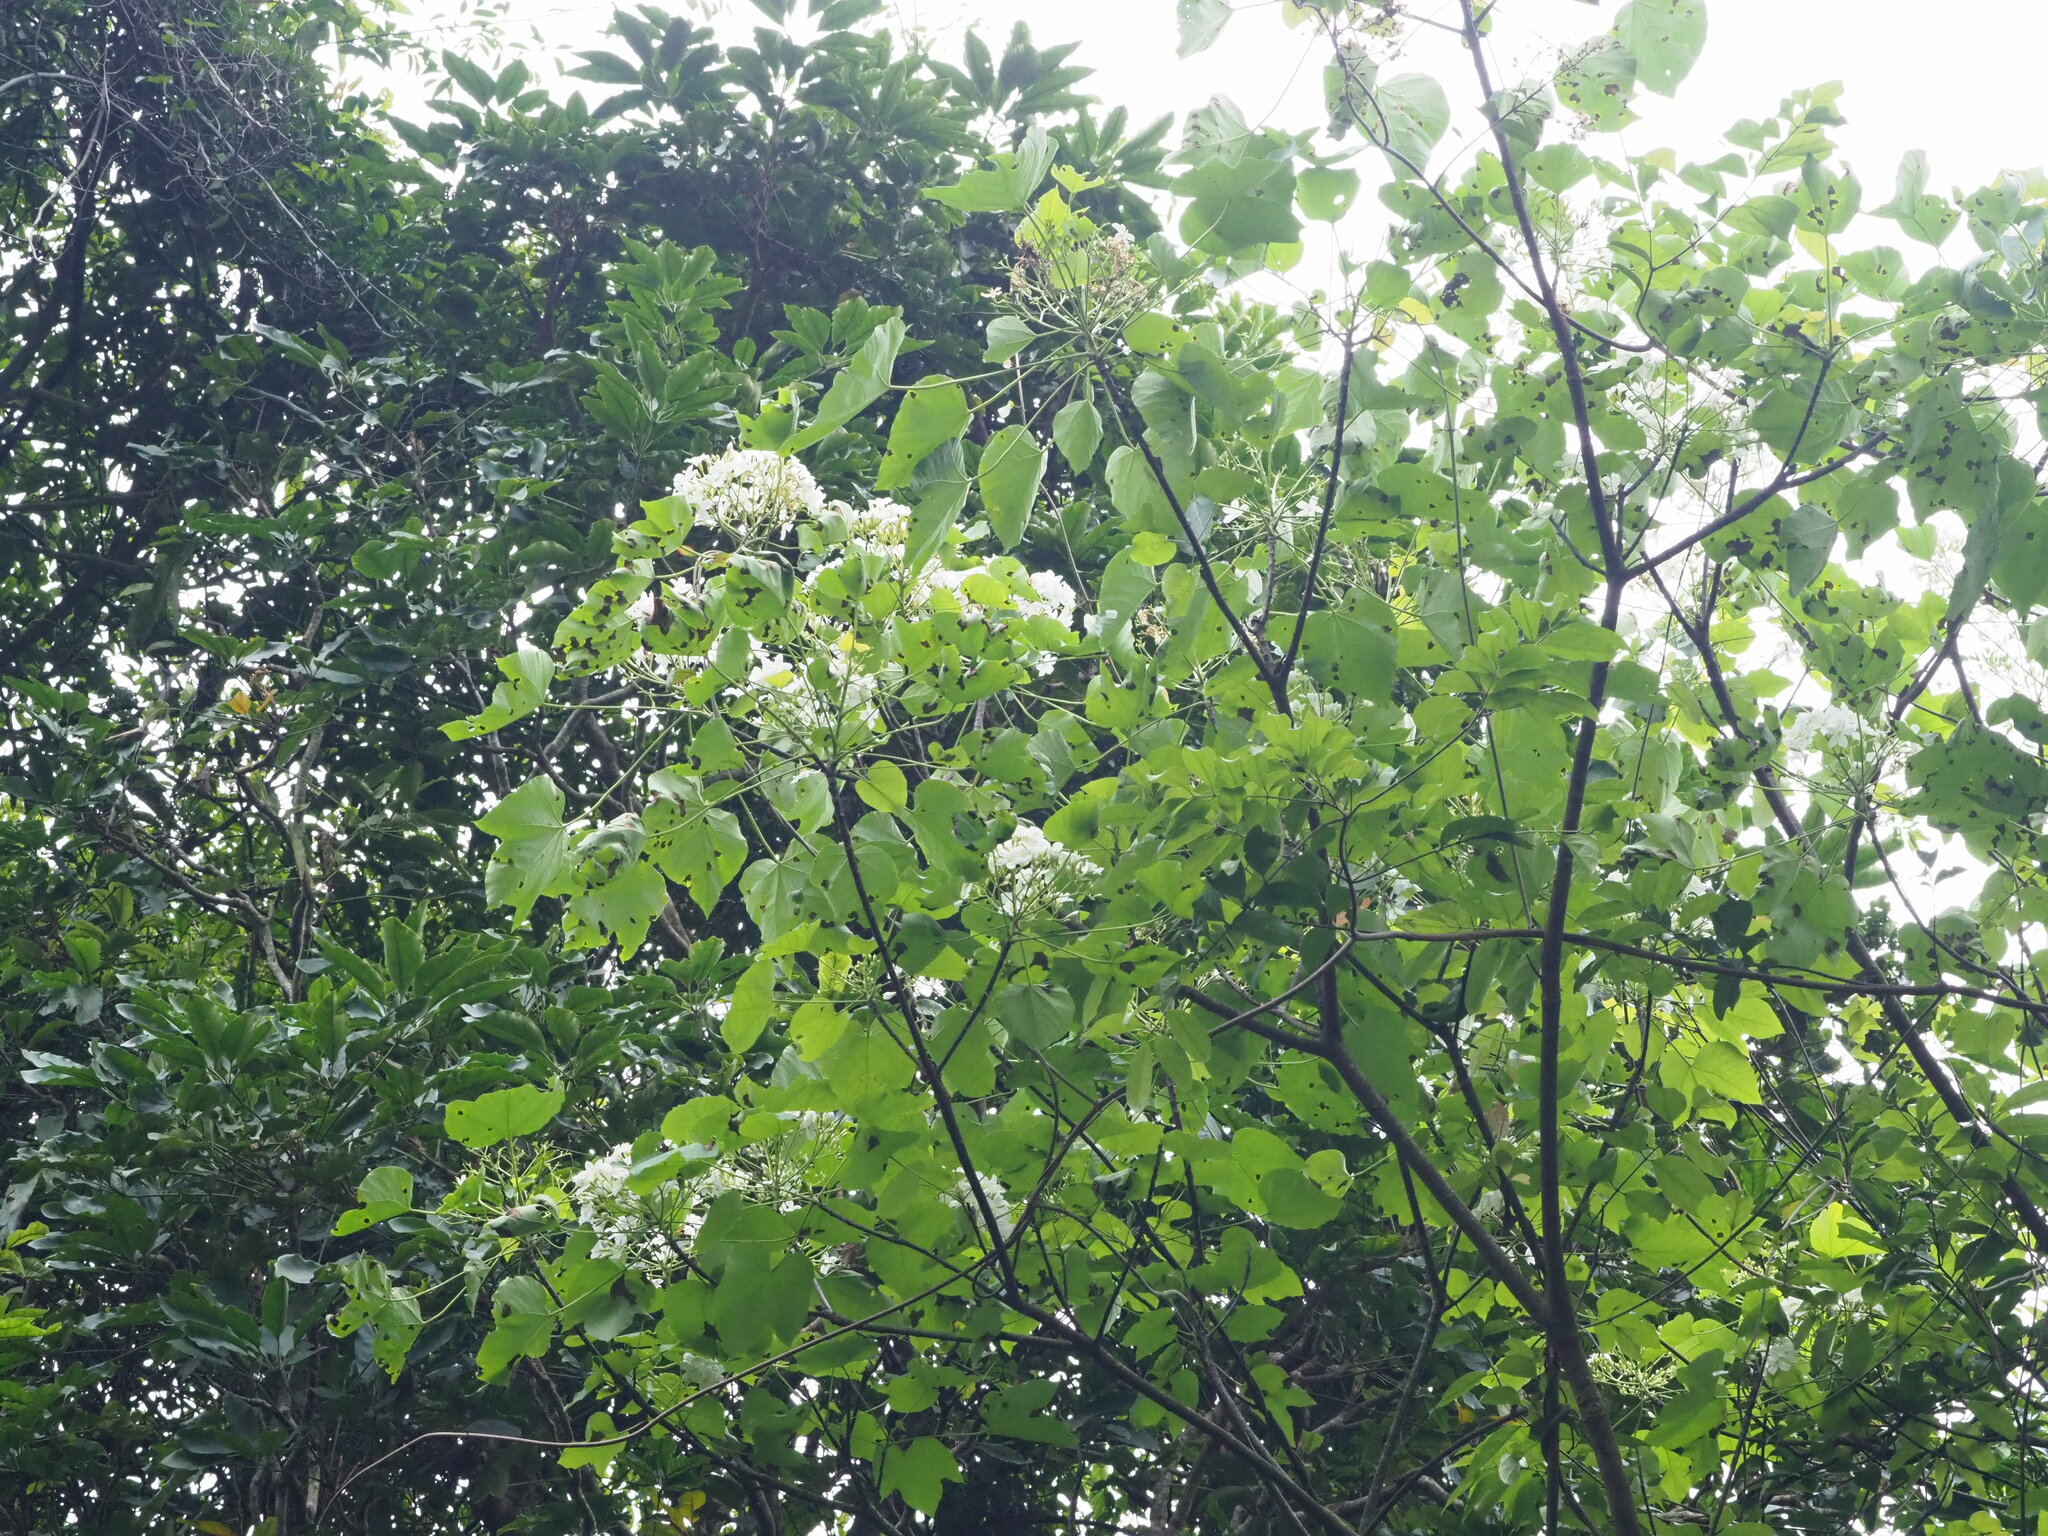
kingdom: Plantae
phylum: Tracheophyta
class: Magnoliopsida
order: Malpighiales
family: Euphorbiaceae
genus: Vernicia
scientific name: Vernicia montana
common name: Mu oil tree
